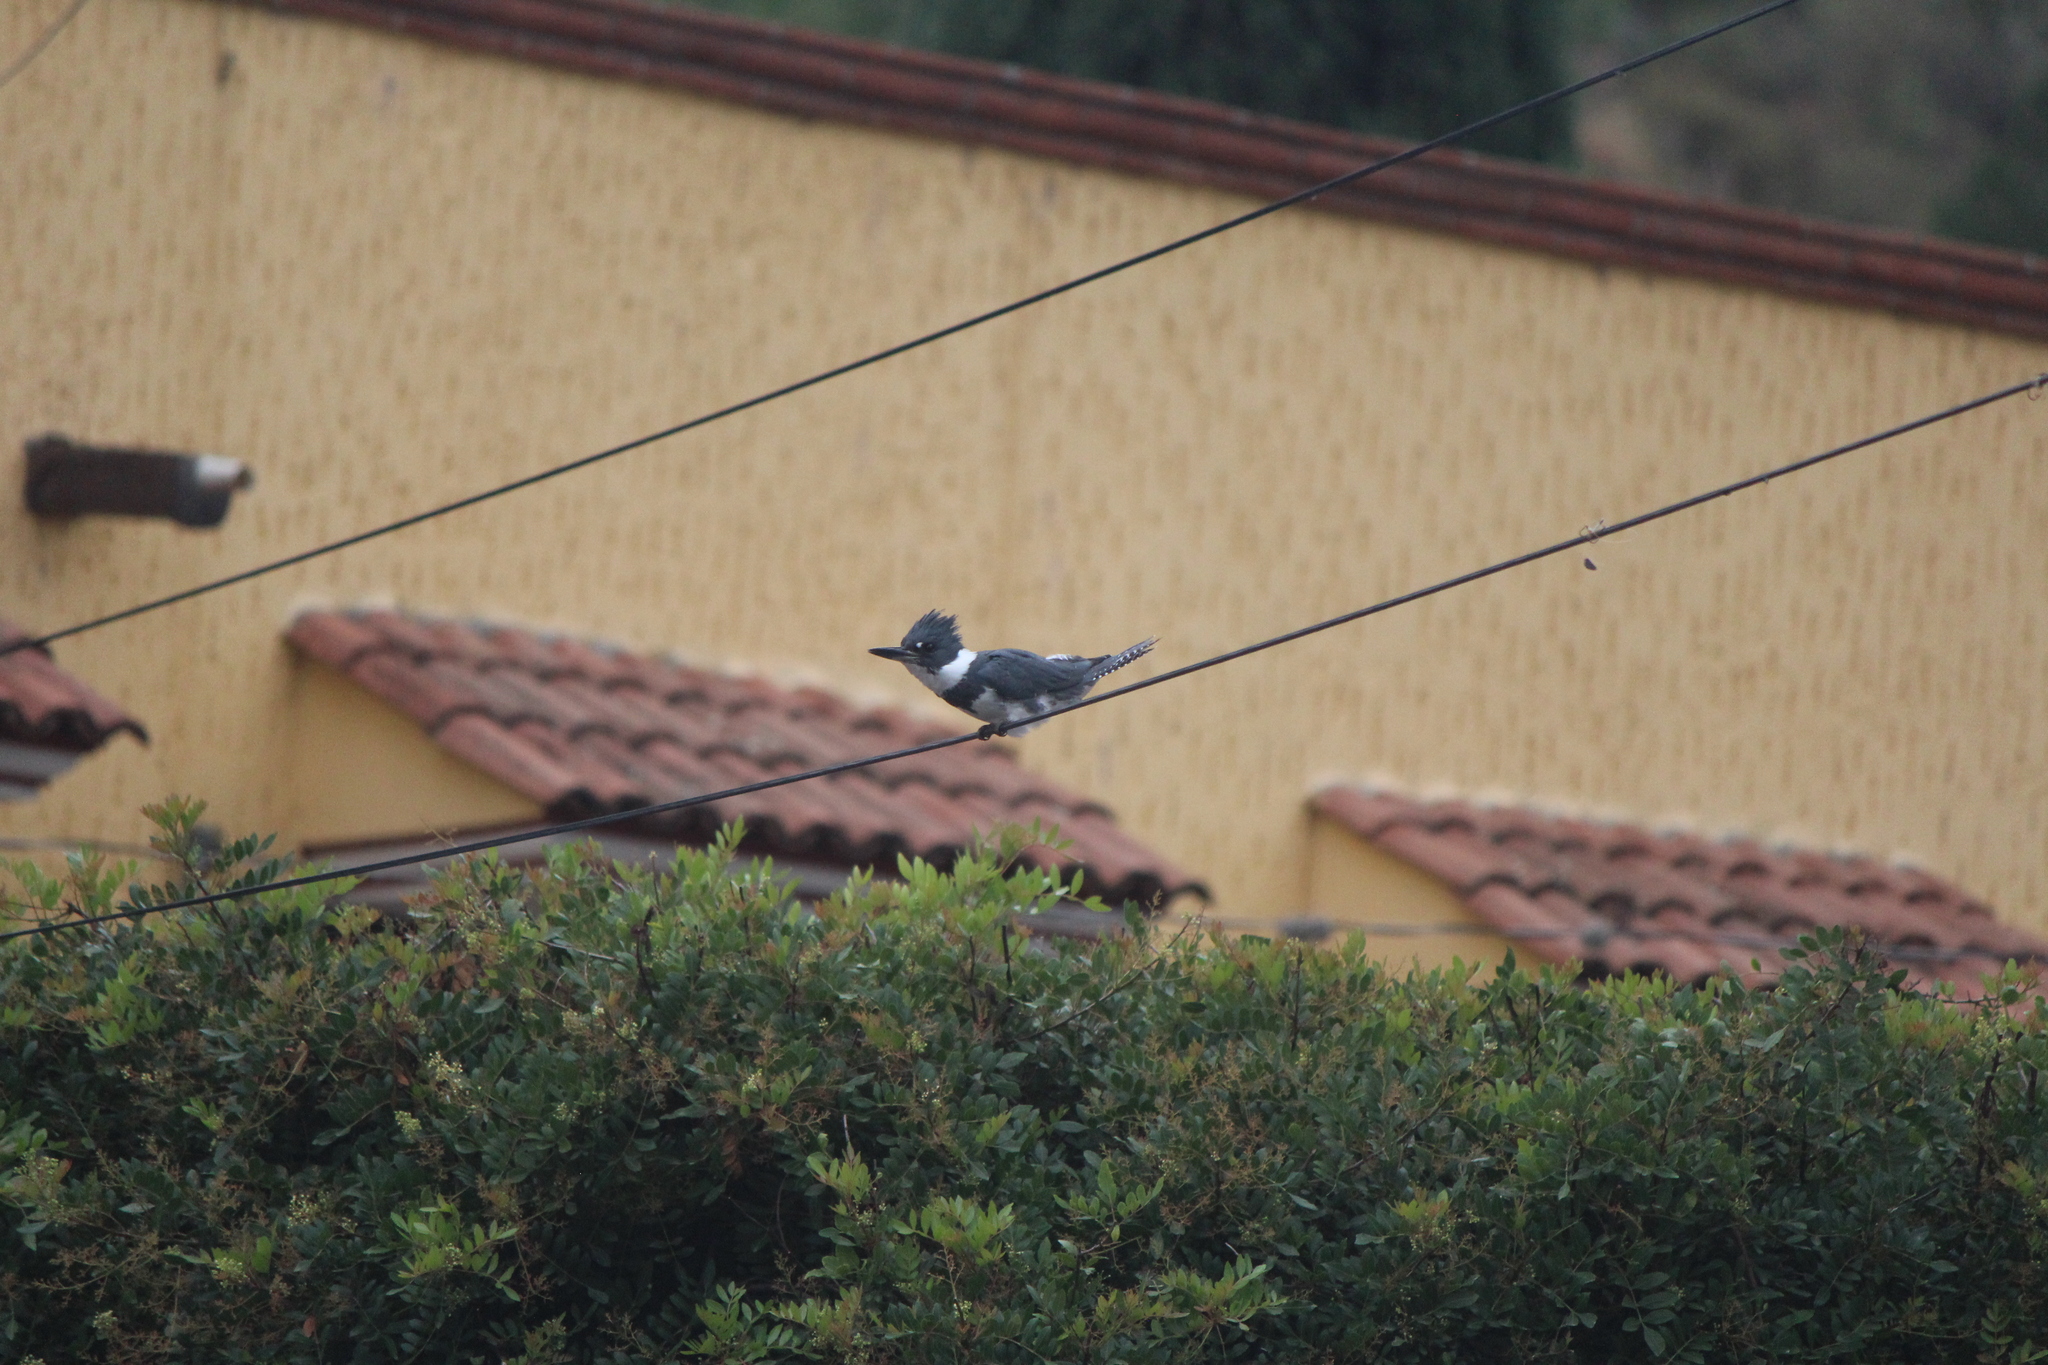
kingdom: Animalia
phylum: Chordata
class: Aves
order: Coraciiformes
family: Alcedinidae
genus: Megaceryle
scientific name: Megaceryle alcyon
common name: Belted kingfisher
